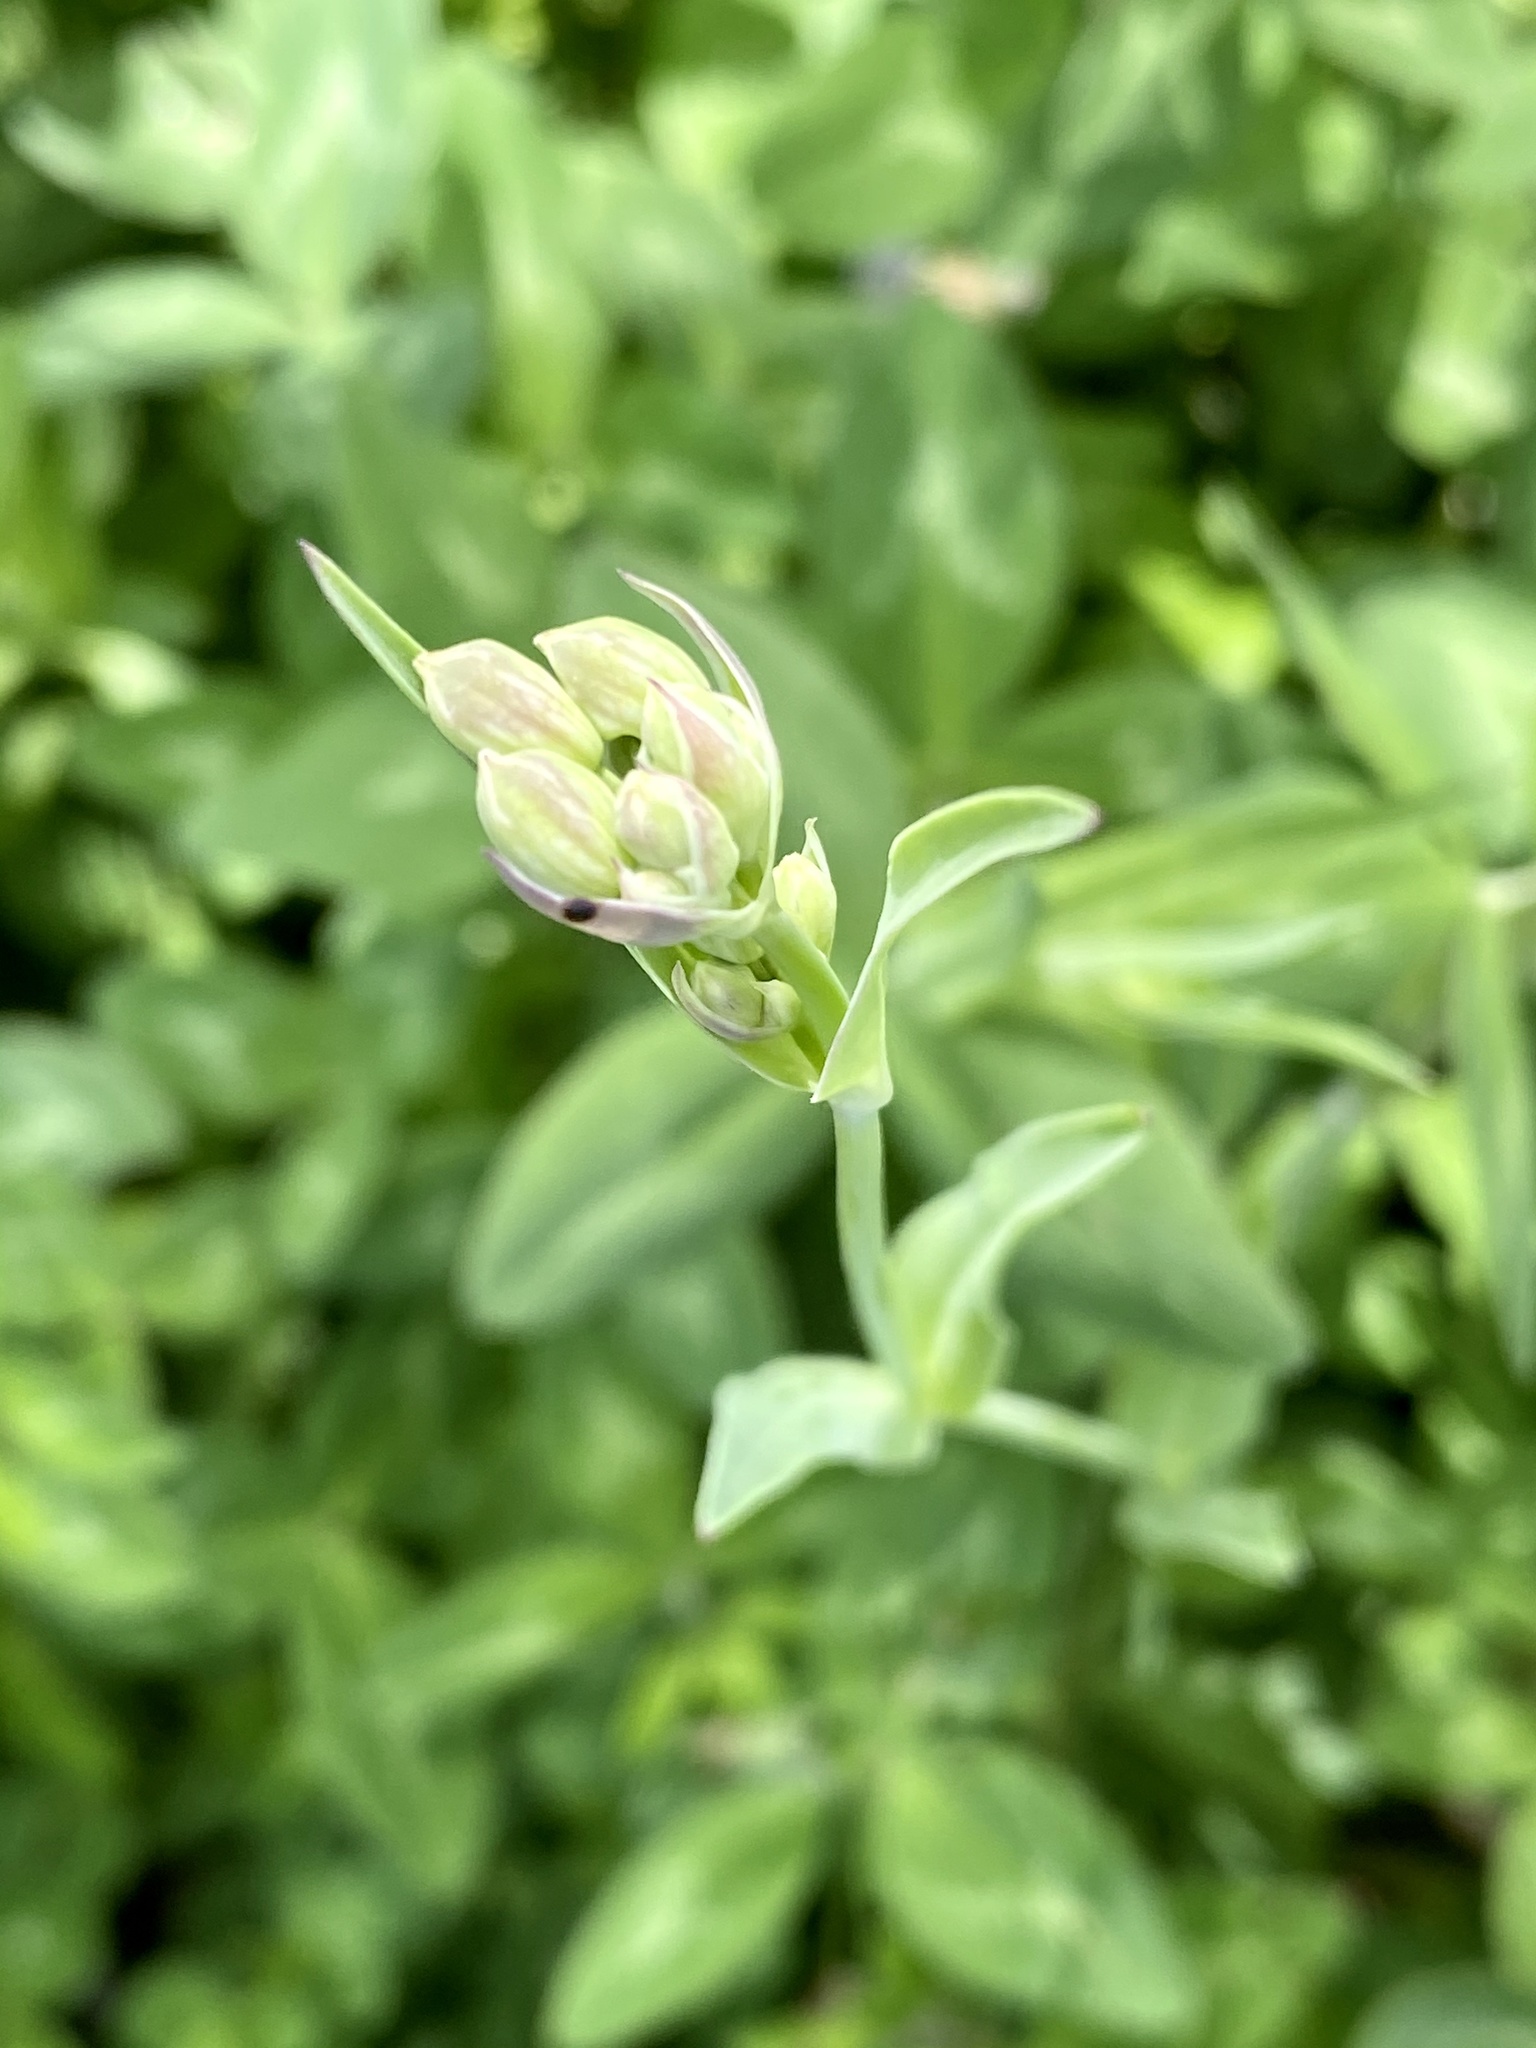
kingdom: Plantae
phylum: Tracheophyta
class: Magnoliopsida
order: Caryophyllales
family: Caryophyllaceae
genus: Silene
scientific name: Silene vulgaris
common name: Bladder campion
